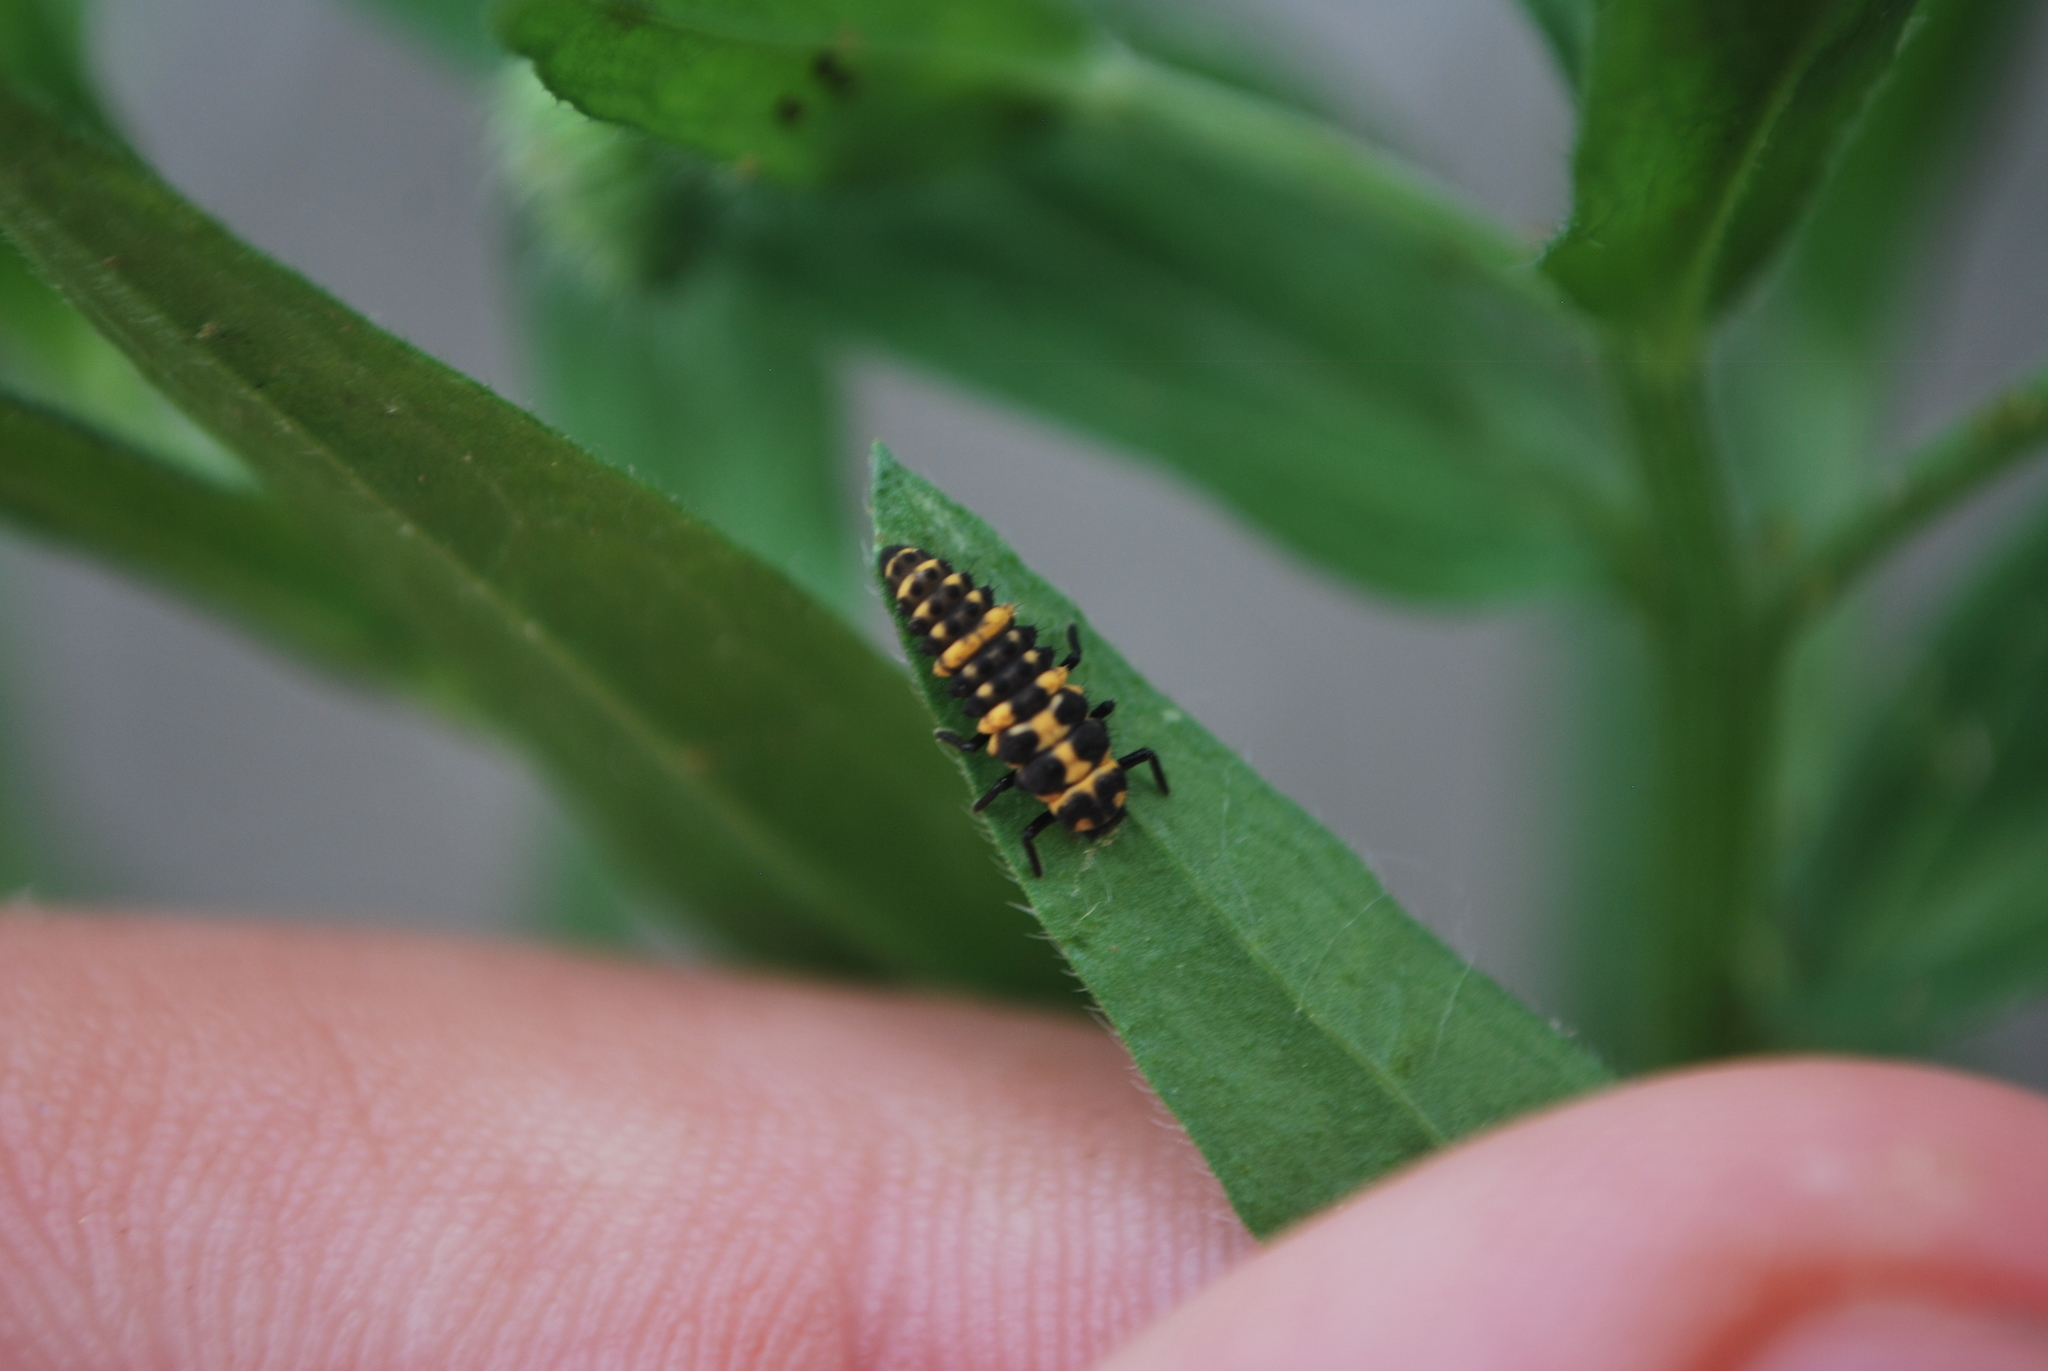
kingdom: Animalia
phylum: Arthropoda
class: Insecta
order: Coleoptera
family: Coccinellidae
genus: Coleomegilla
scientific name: Coleomegilla maculata
